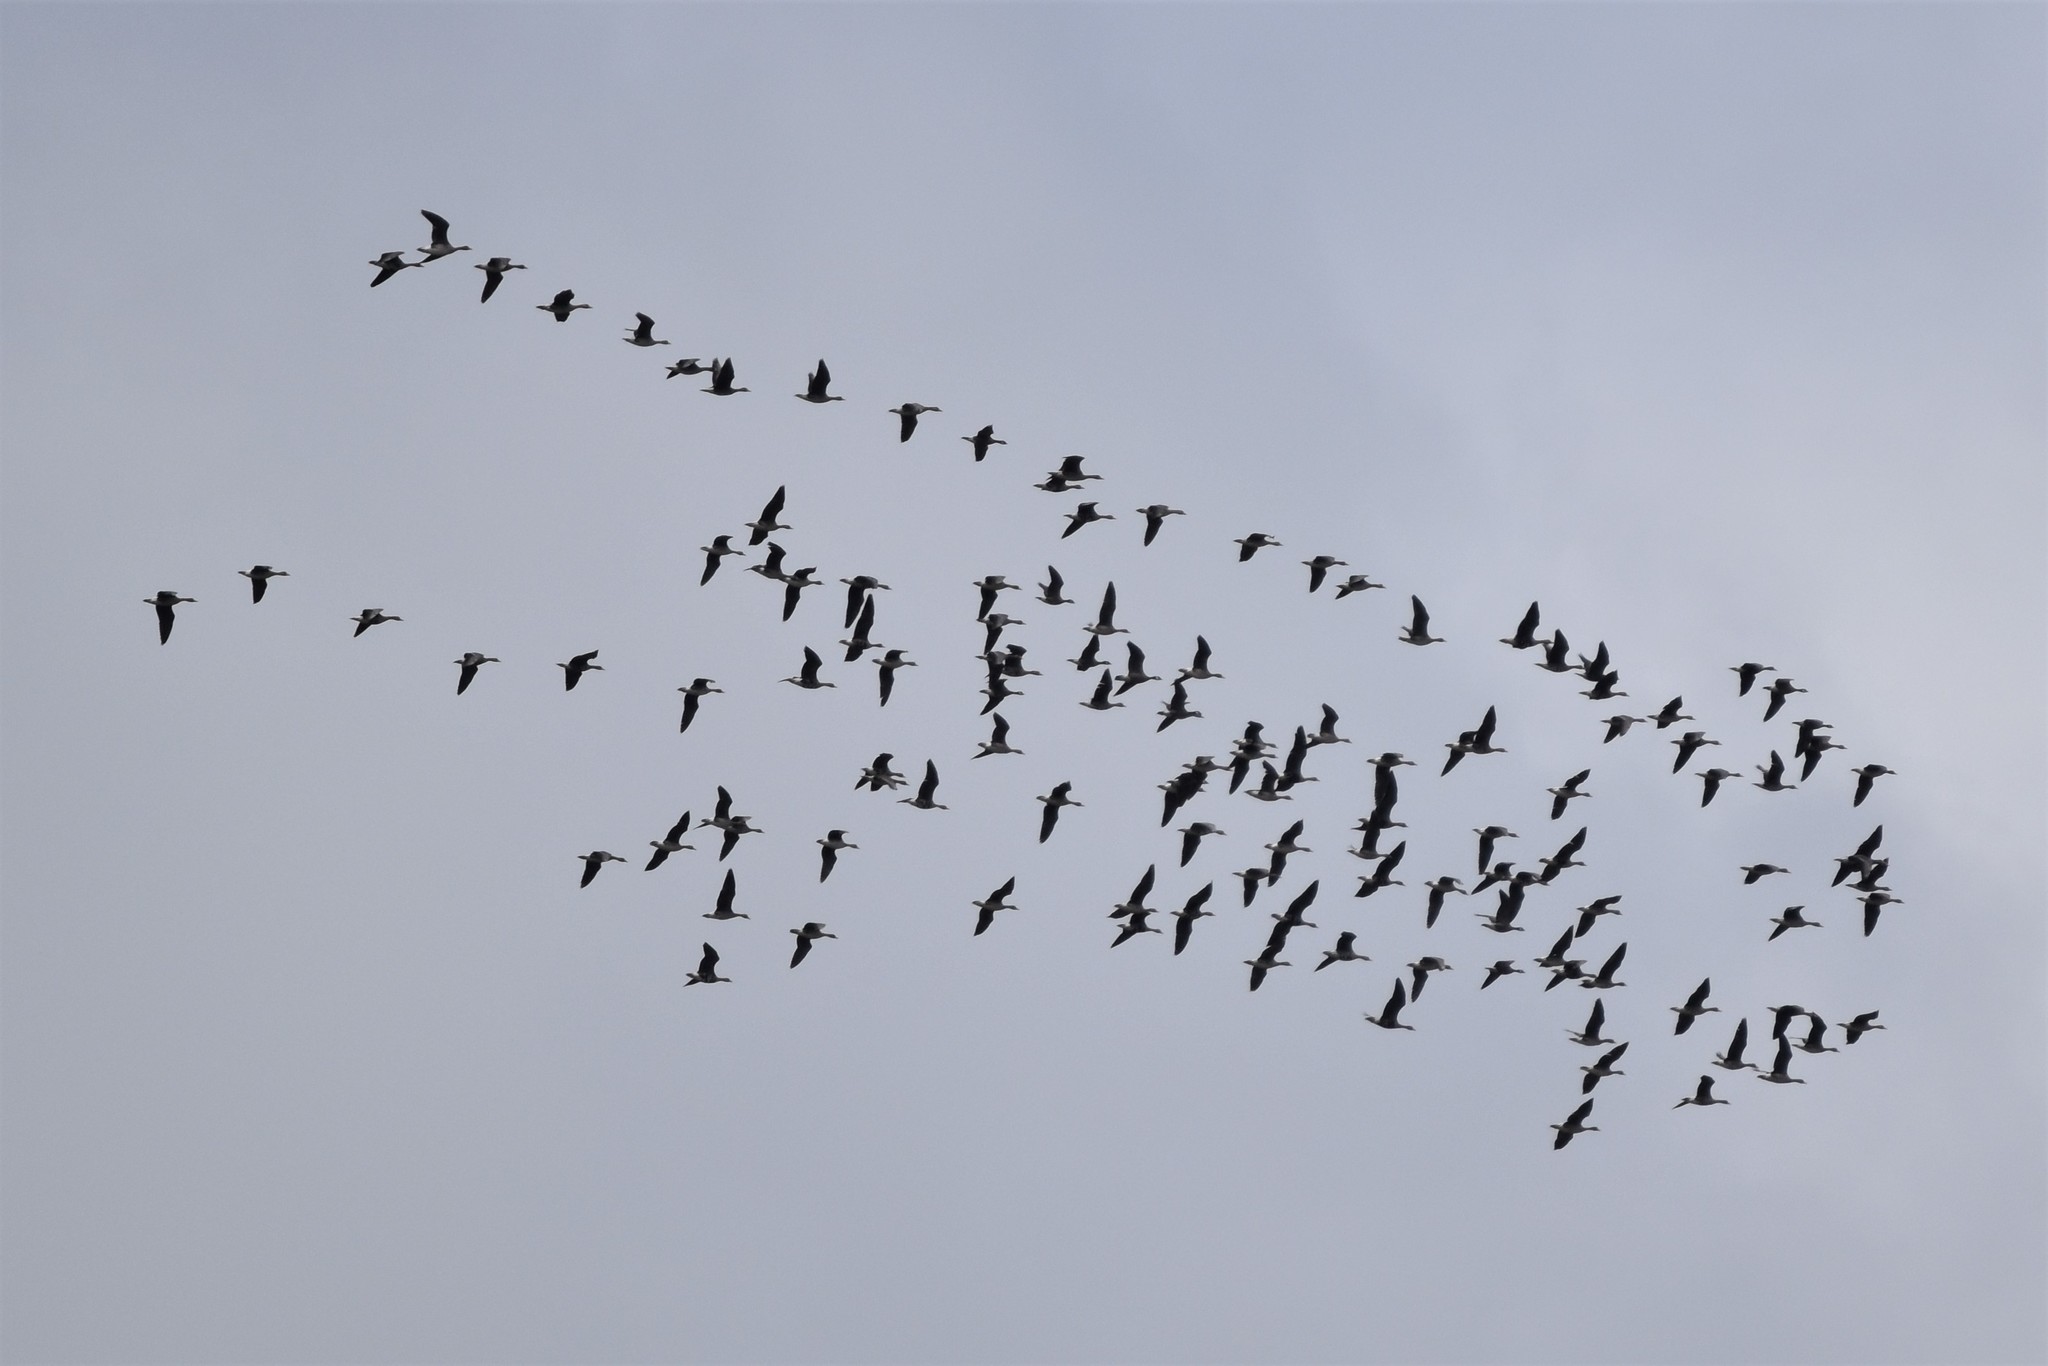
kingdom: Animalia
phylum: Chordata
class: Aves
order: Anseriformes
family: Anatidae
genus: Anser
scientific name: Anser albifrons
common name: Greater white-fronted goose
